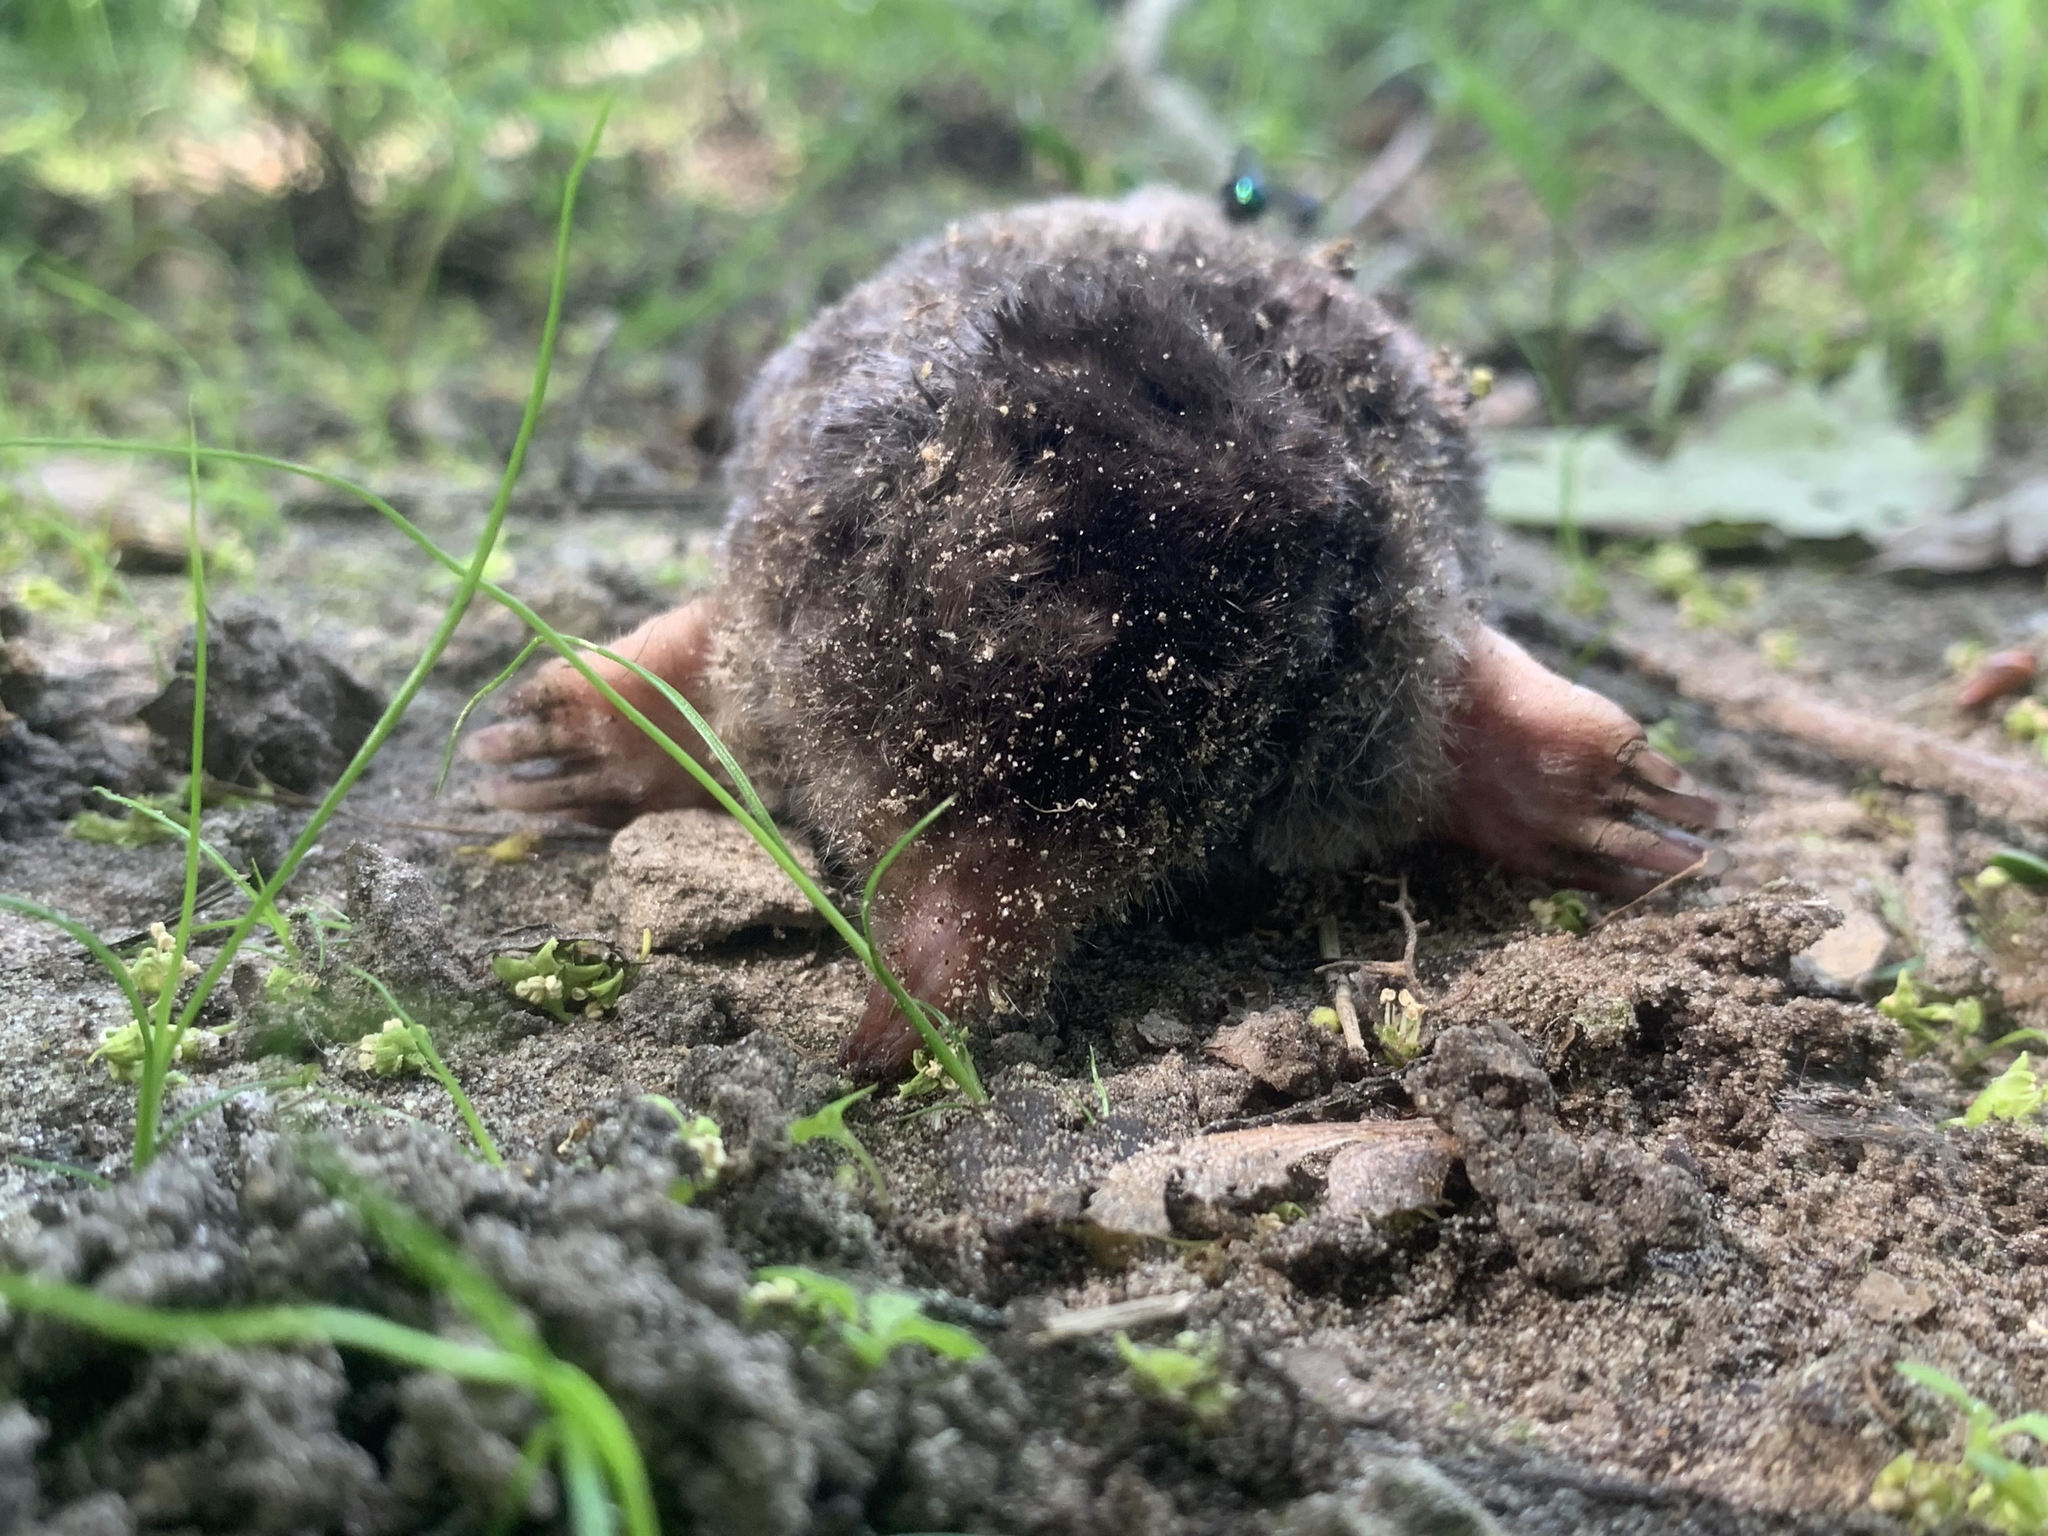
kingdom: Animalia
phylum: Chordata
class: Mammalia
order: Soricomorpha
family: Talpidae
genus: Scalopus
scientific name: Scalopus aquaticus
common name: Eastern mole
